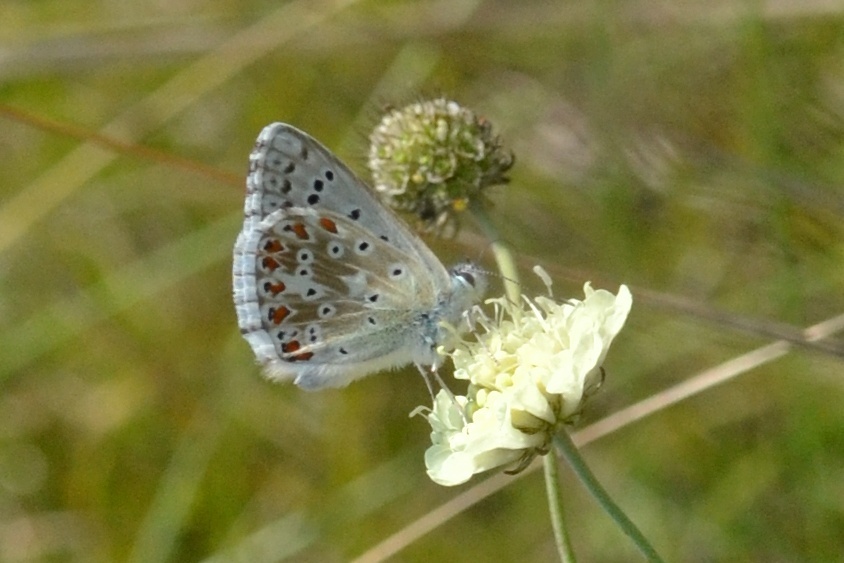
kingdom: Animalia
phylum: Arthropoda
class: Insecta
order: Lepidoptera
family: Lycaenidae
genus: Lysandra
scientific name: Lysandra coridon
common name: Chalkhill blue
